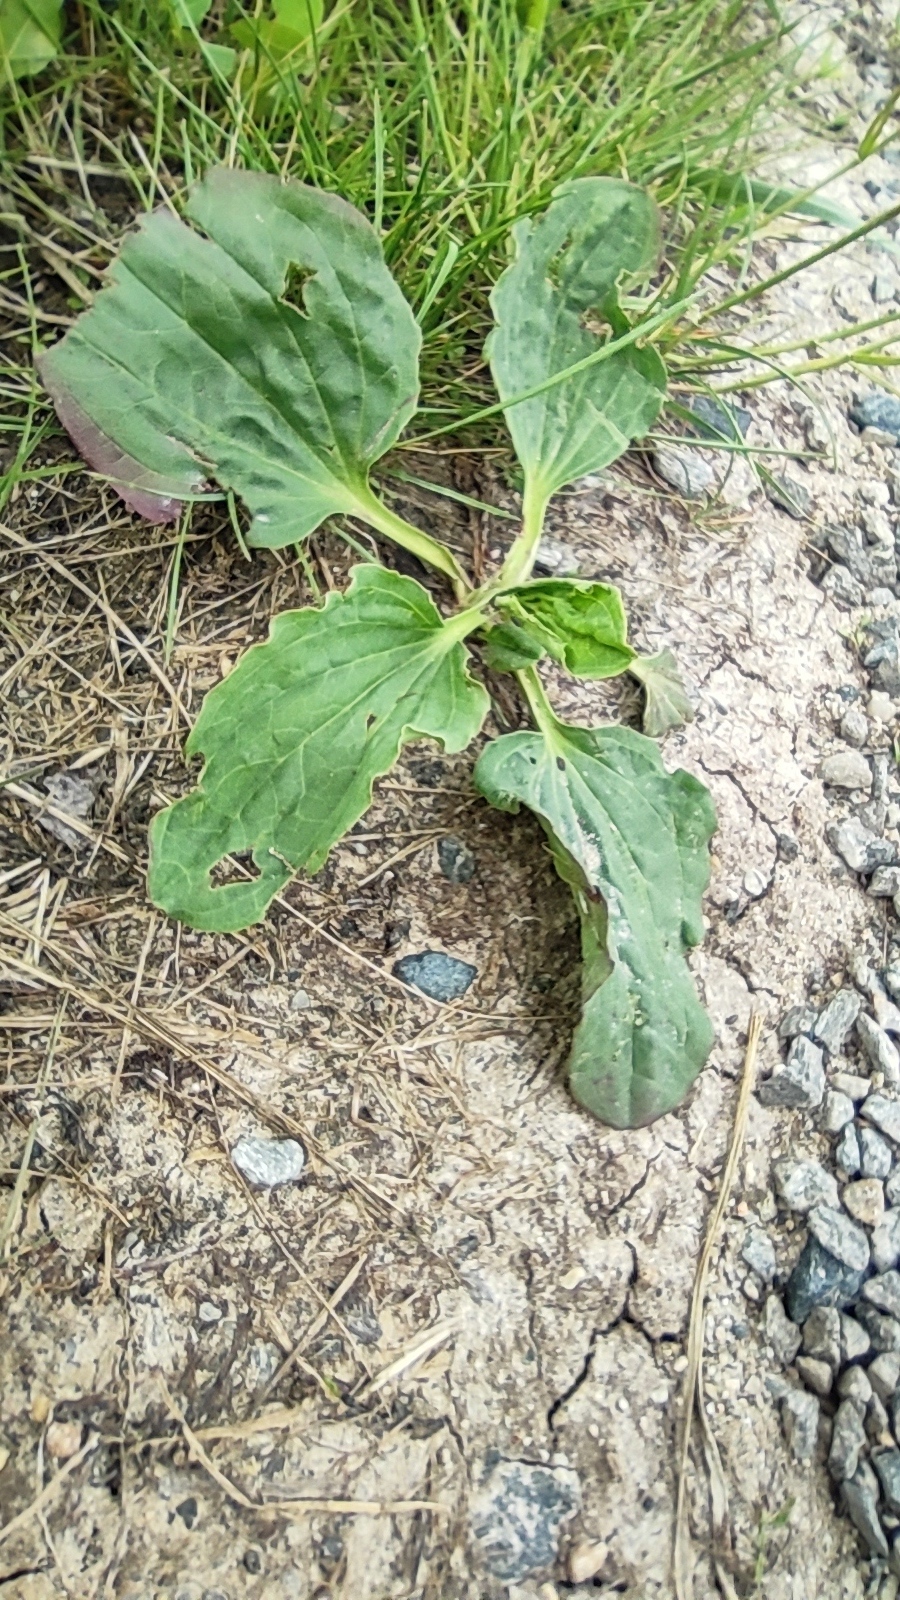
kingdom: Plantae
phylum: Tracheophyta
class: Magnoliopsida
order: Lamiales
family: Plantaginaceae
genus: Plantago
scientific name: Plantago major
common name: Common plantain
